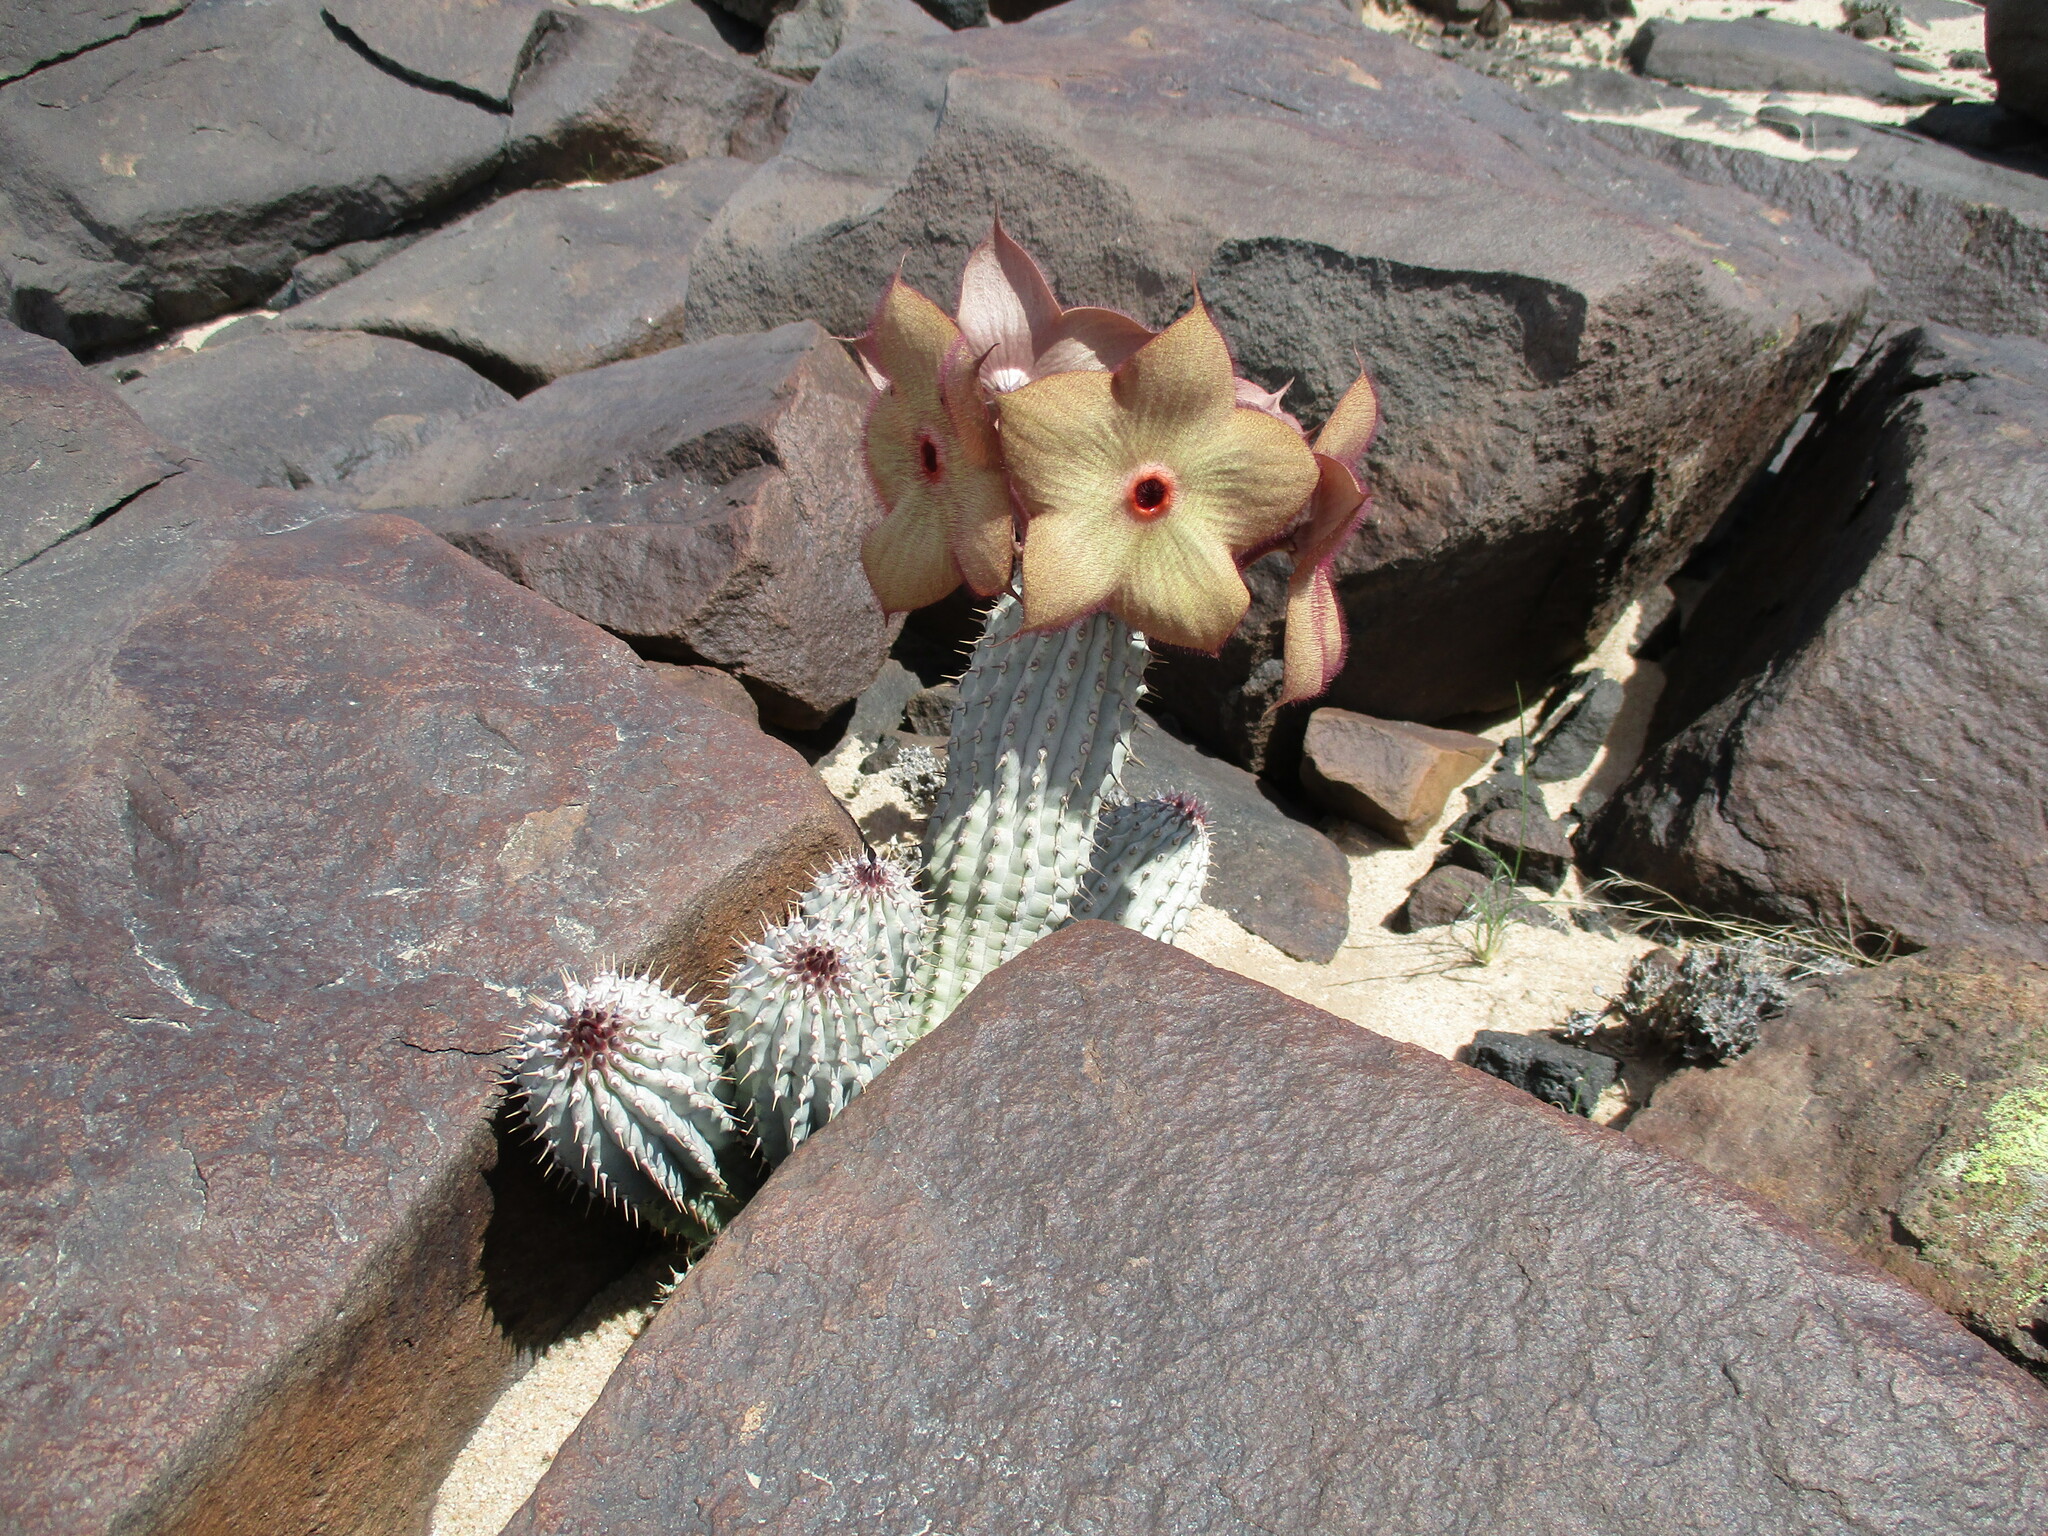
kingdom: Plantae
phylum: Tracheophyta
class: Magnoliopsida
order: Gentianales
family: Apocynaceae
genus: Ceropegia
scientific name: Ceropegia currorii
